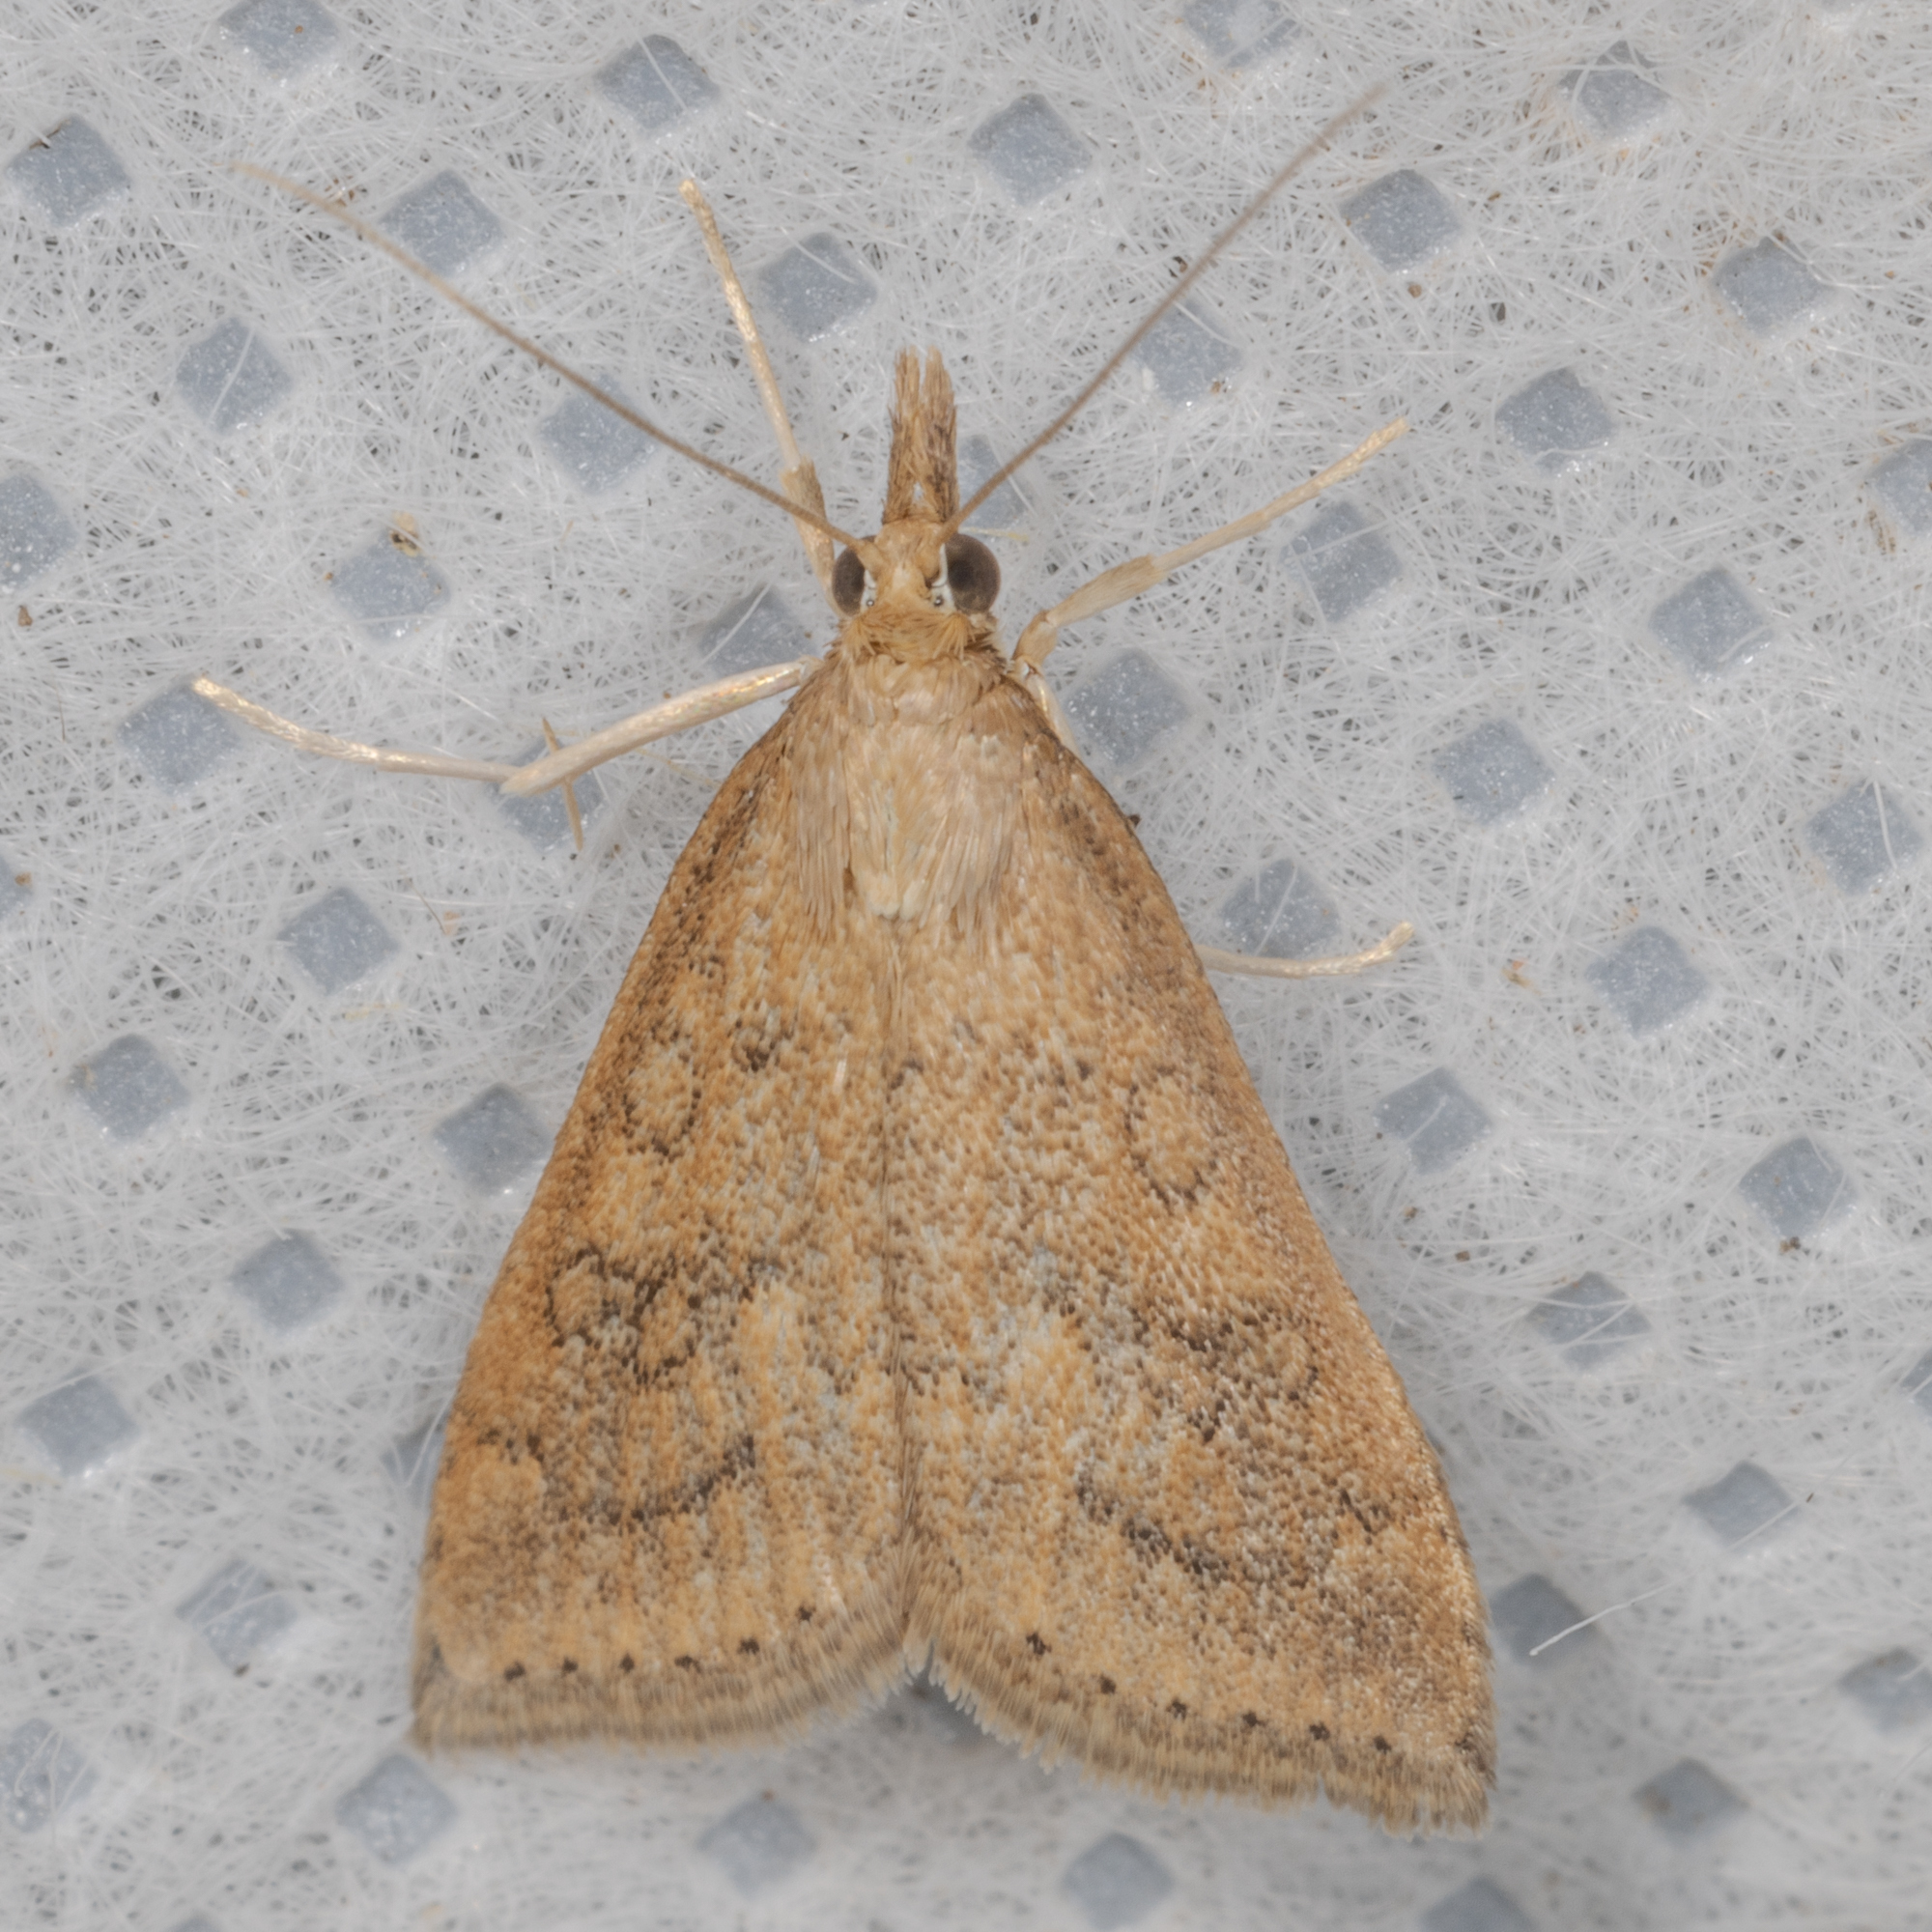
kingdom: Animalia
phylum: Arthropoda
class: Insecta
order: Lepidoptera
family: Crambidae
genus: Udea
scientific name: Udea rubigalis
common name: Celery leaftier moth
